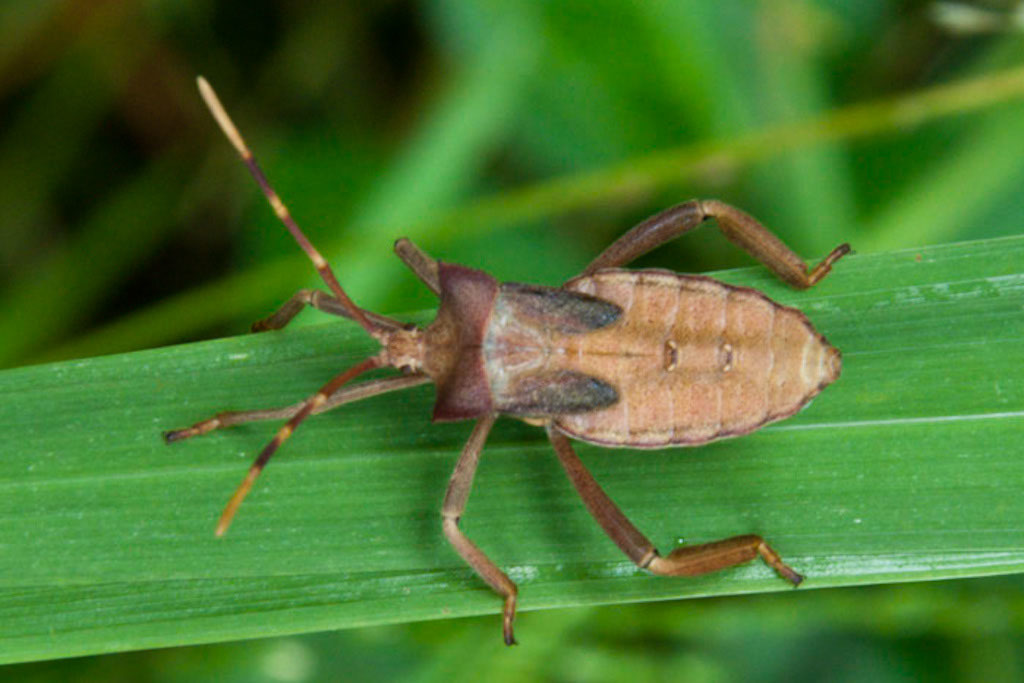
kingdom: Animalia
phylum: Arthropoda
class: Insecta
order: Hemiptera
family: Coreidae
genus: Elasmopoda
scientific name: Elasmopoda valga
